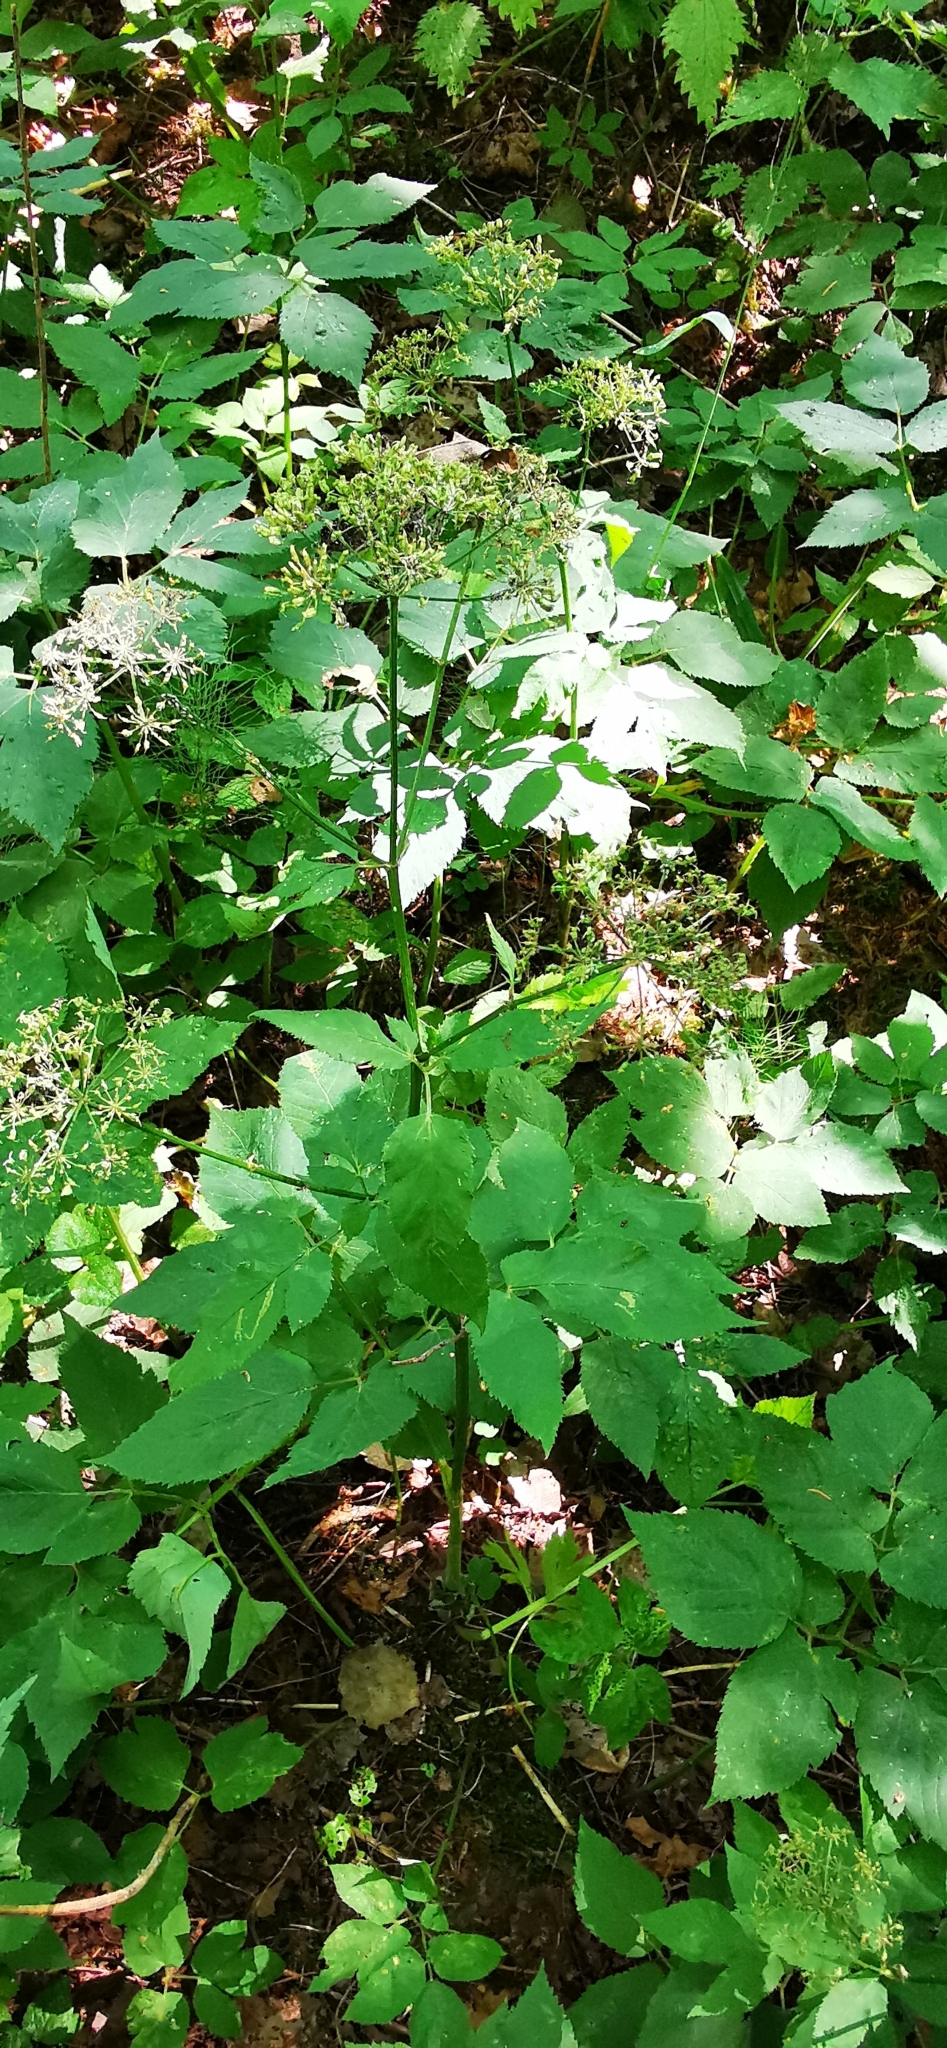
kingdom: Plantae
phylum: Tracheophyta
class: Magnoliopsida
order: Apiales
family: Apiaceae
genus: Aegopodium
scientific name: Aegopodium podagraria
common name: Ground-elder
